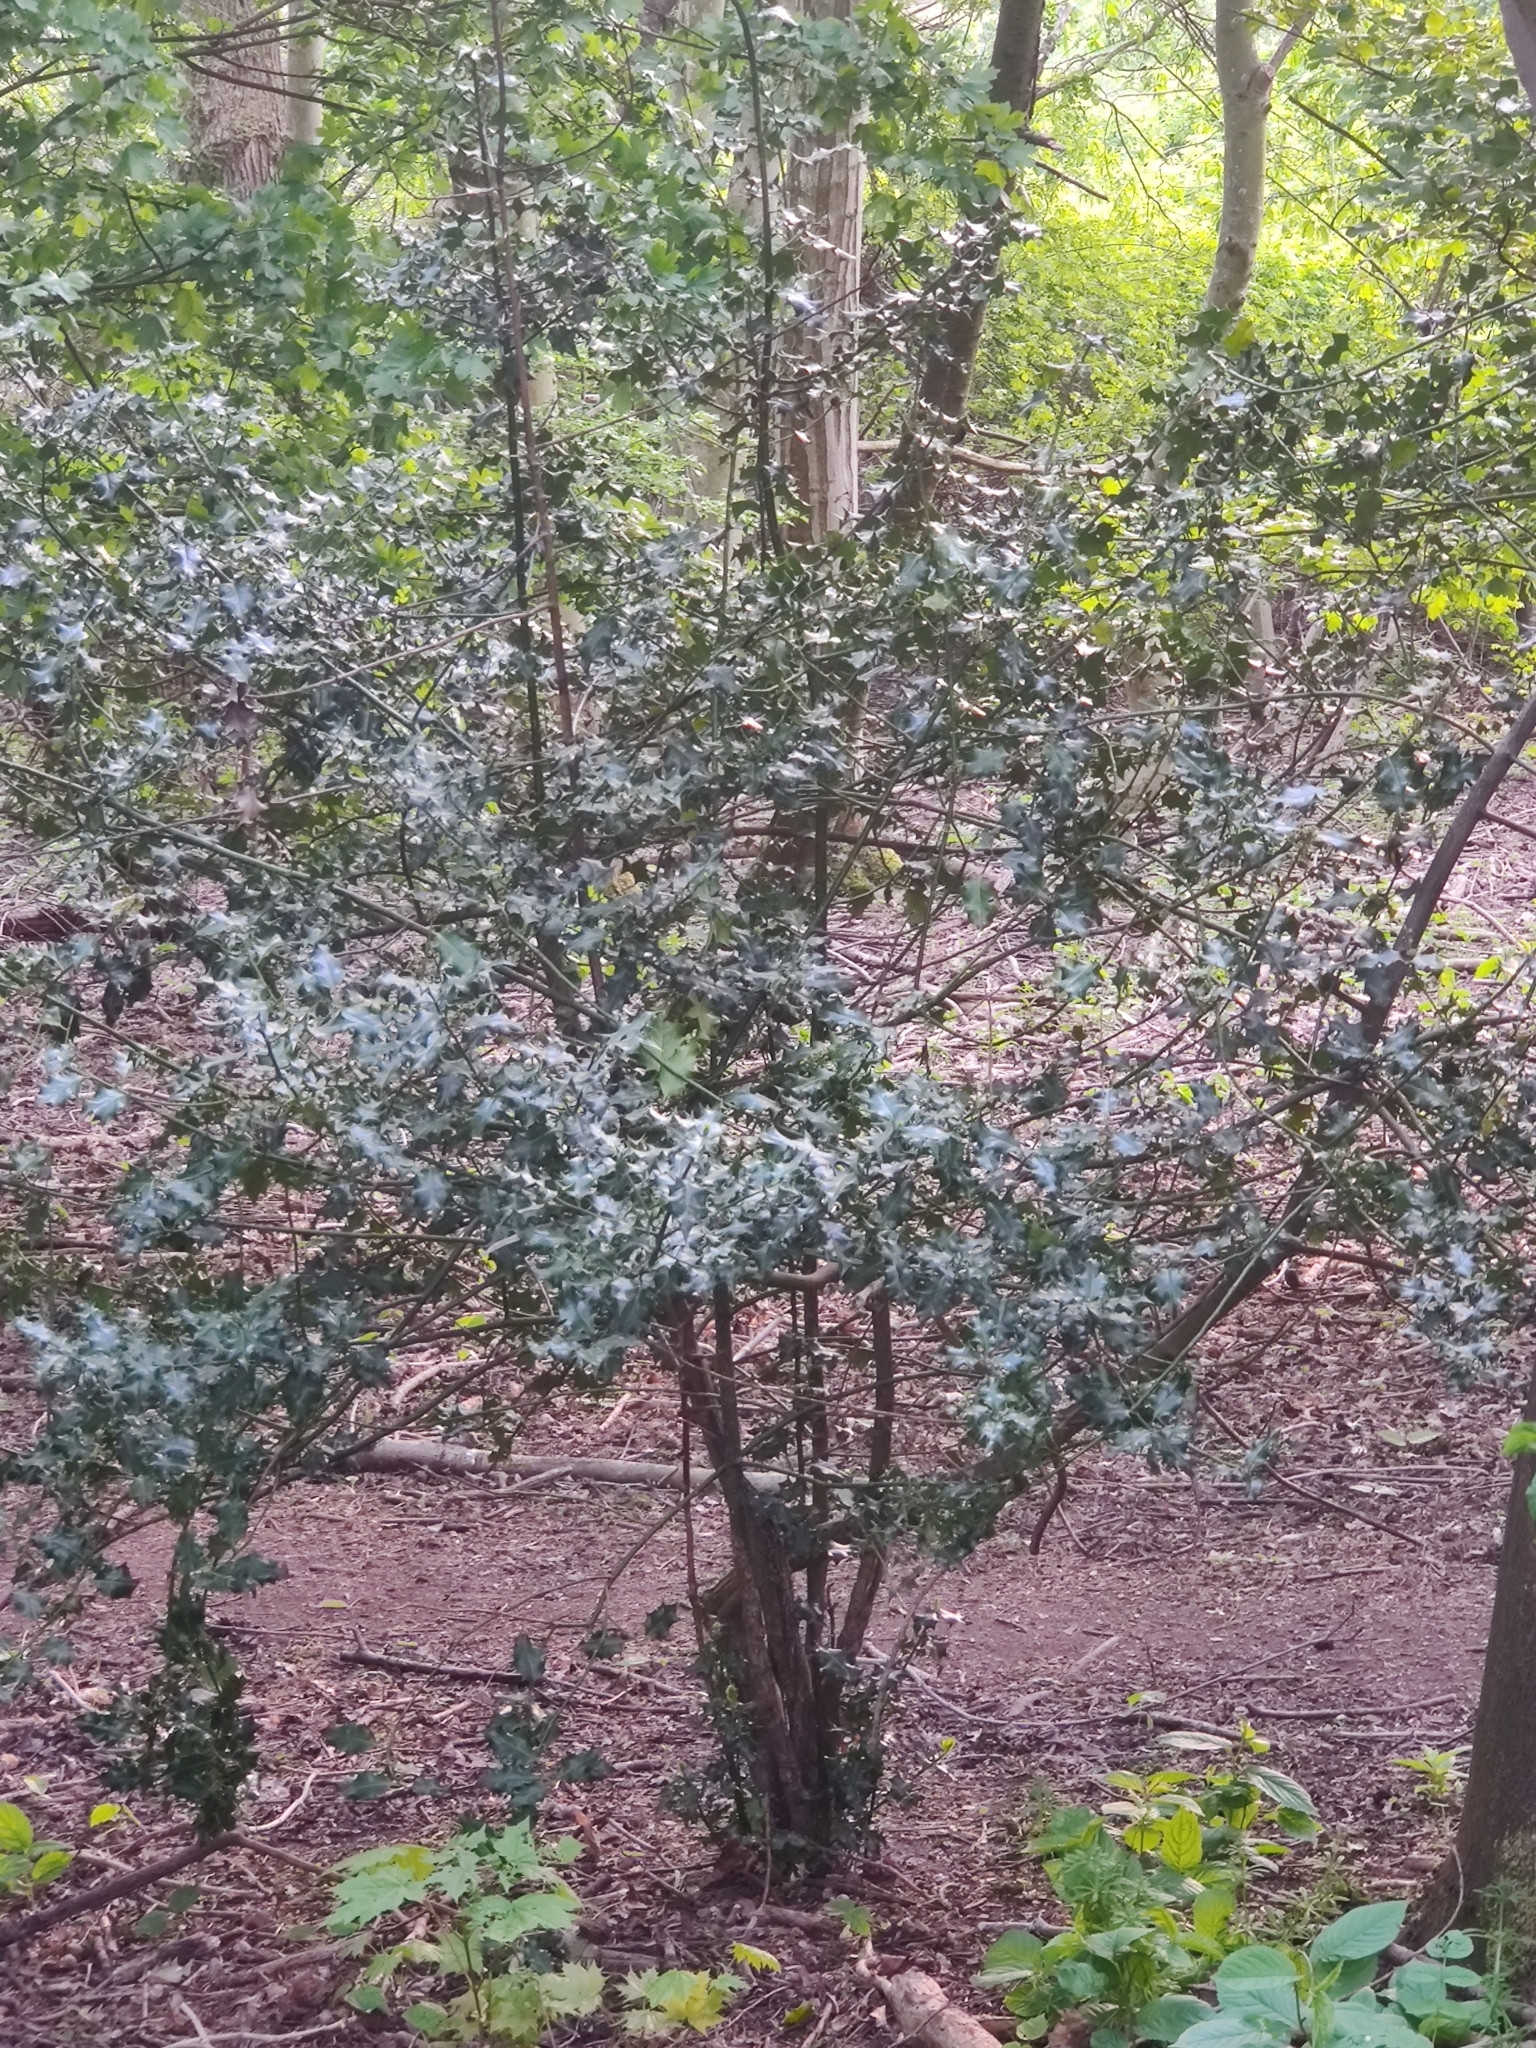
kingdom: Plantae
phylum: Tracheophyta
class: Magnoliopsida
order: Aquifoliales
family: Aquifoliaceae
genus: Ilex
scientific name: Ilex aquifolium
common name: English holly
